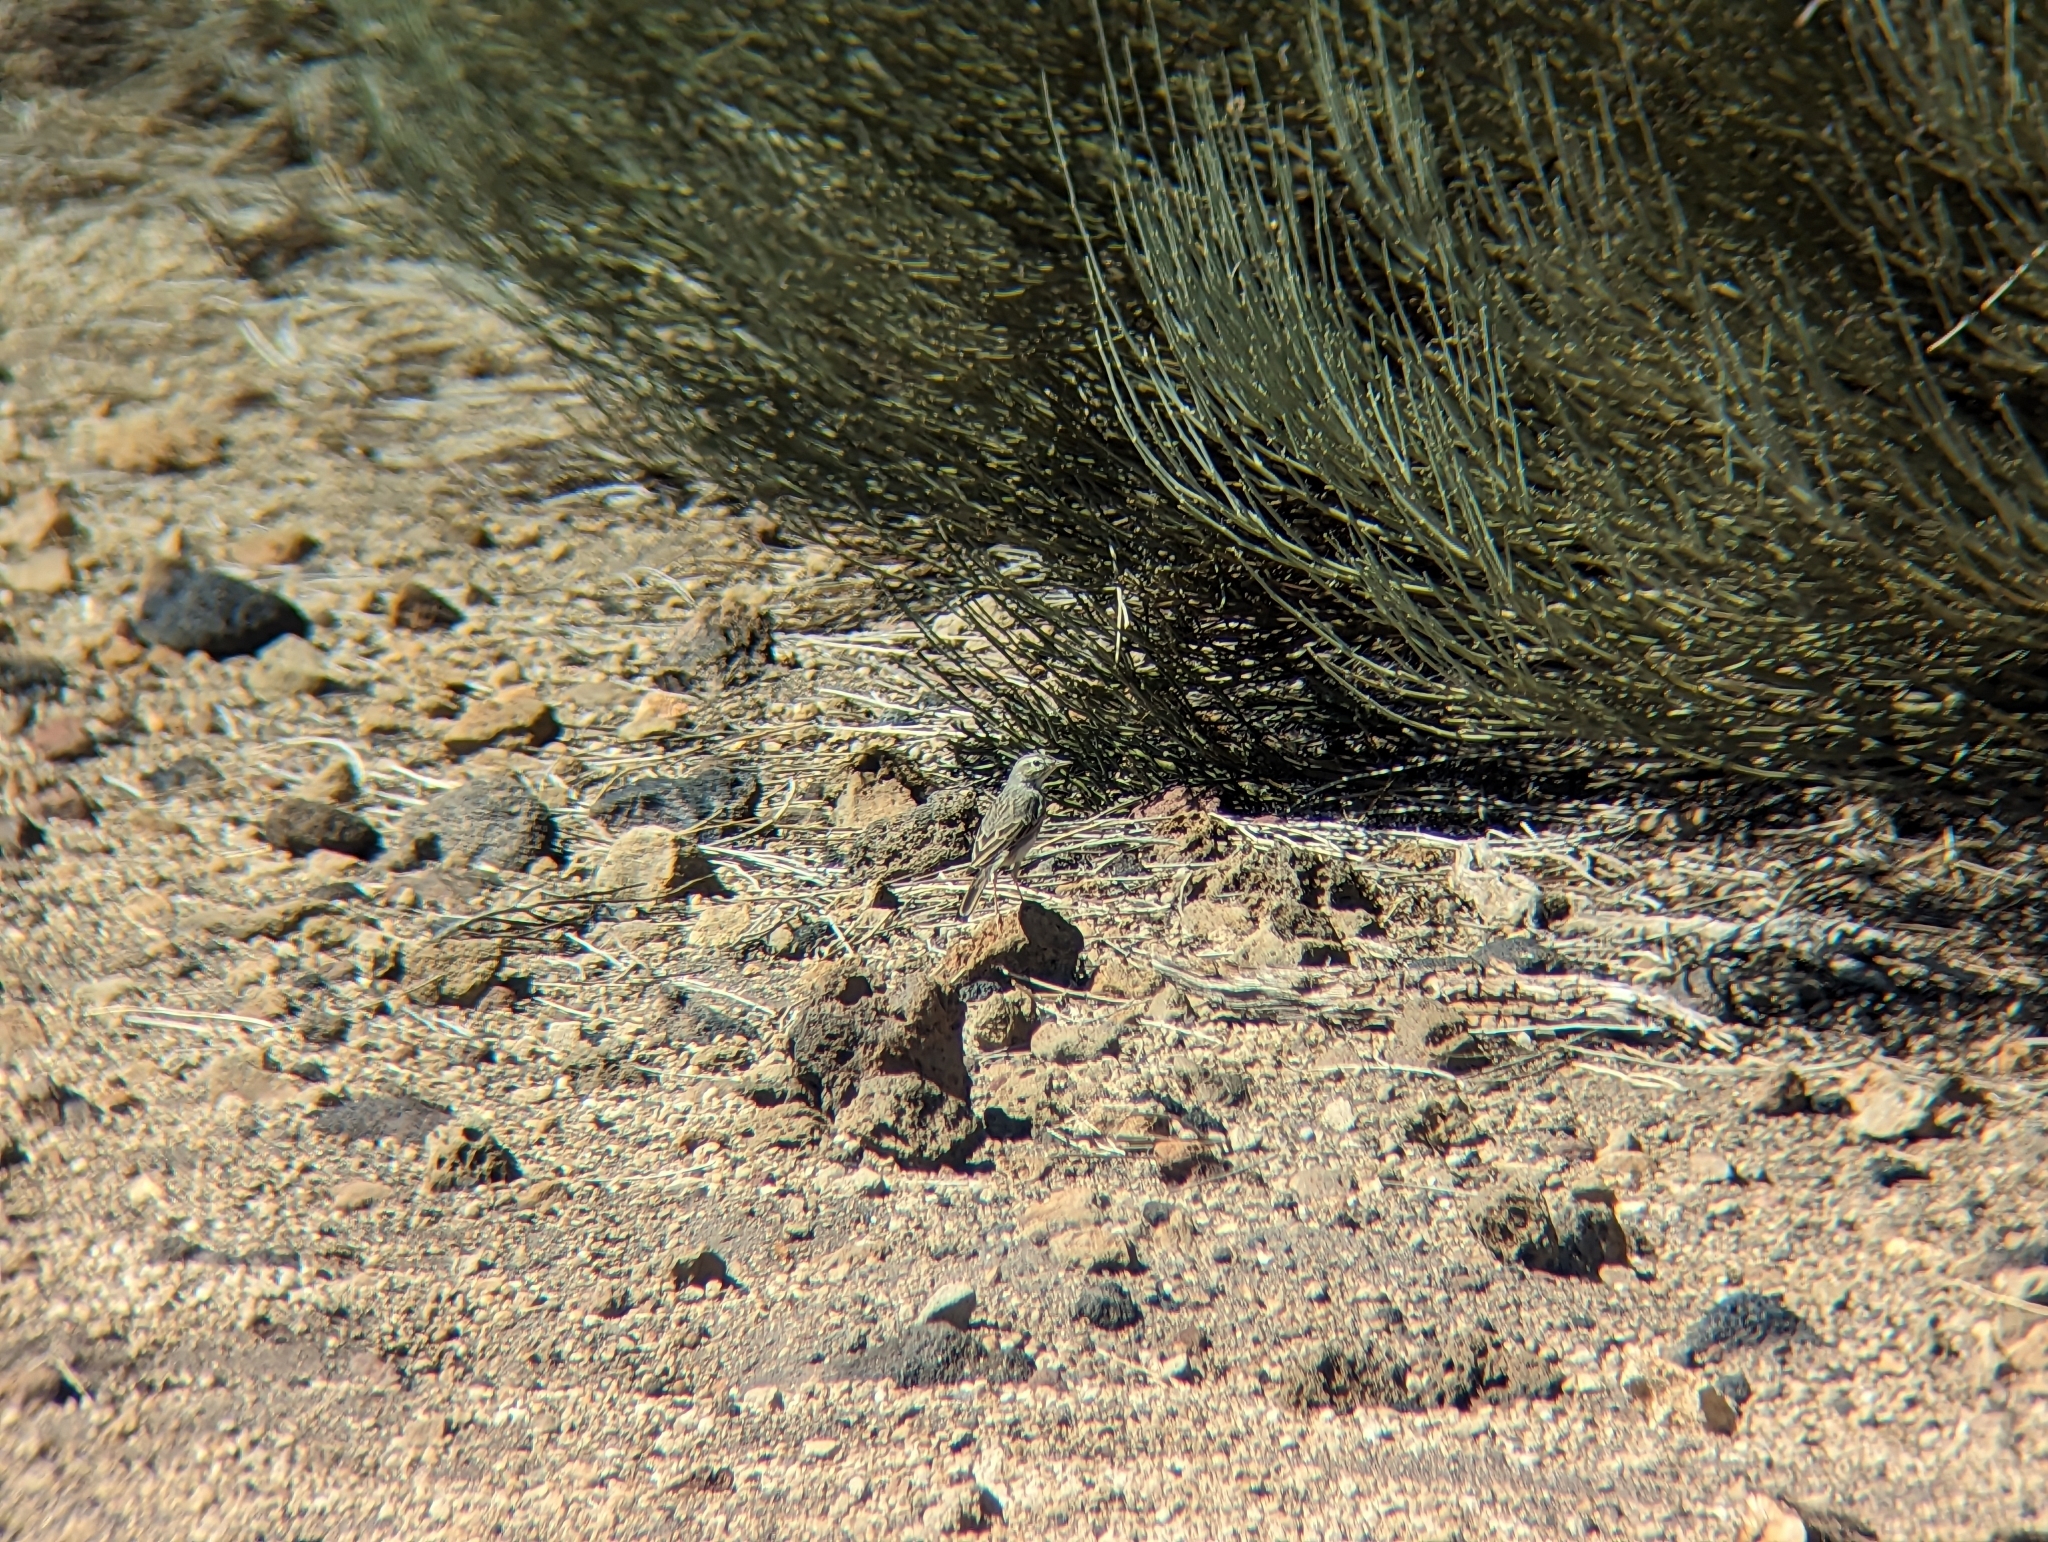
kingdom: Animalia
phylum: Chordata
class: Aves
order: Passeriformes
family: Motacillidae
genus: Anthus
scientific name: Anthus berthelotii
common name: Berthelot's pipit
